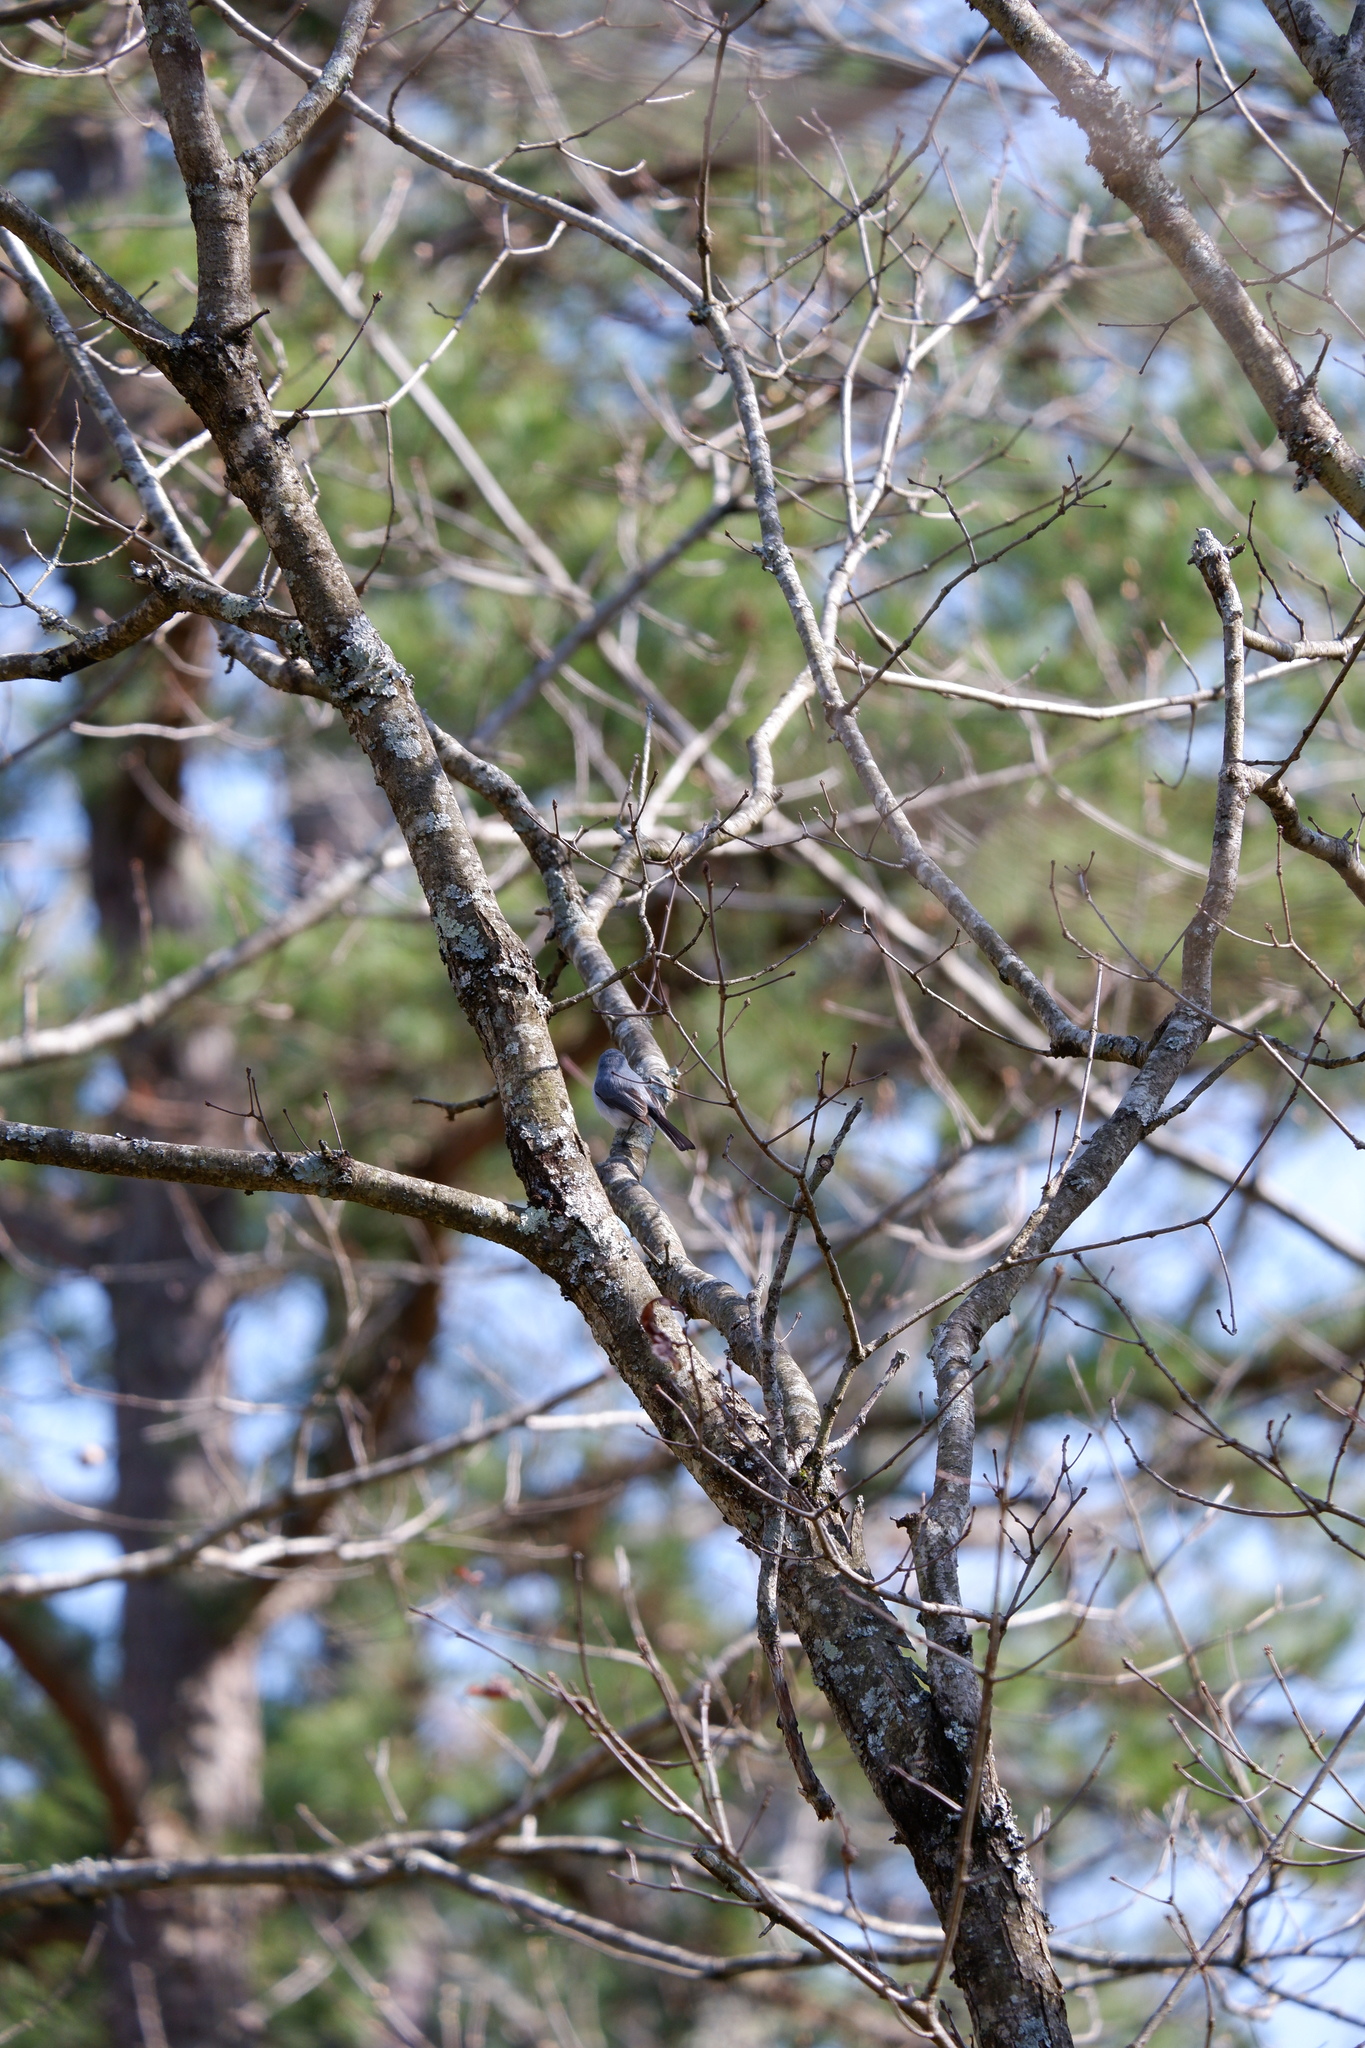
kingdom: Animalia
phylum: Chordata
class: Aves
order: Passeriformes
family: Polioptilidae
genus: Polioptila
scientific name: Polioptila caerulea
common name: Blue-gray gnatcatcher
